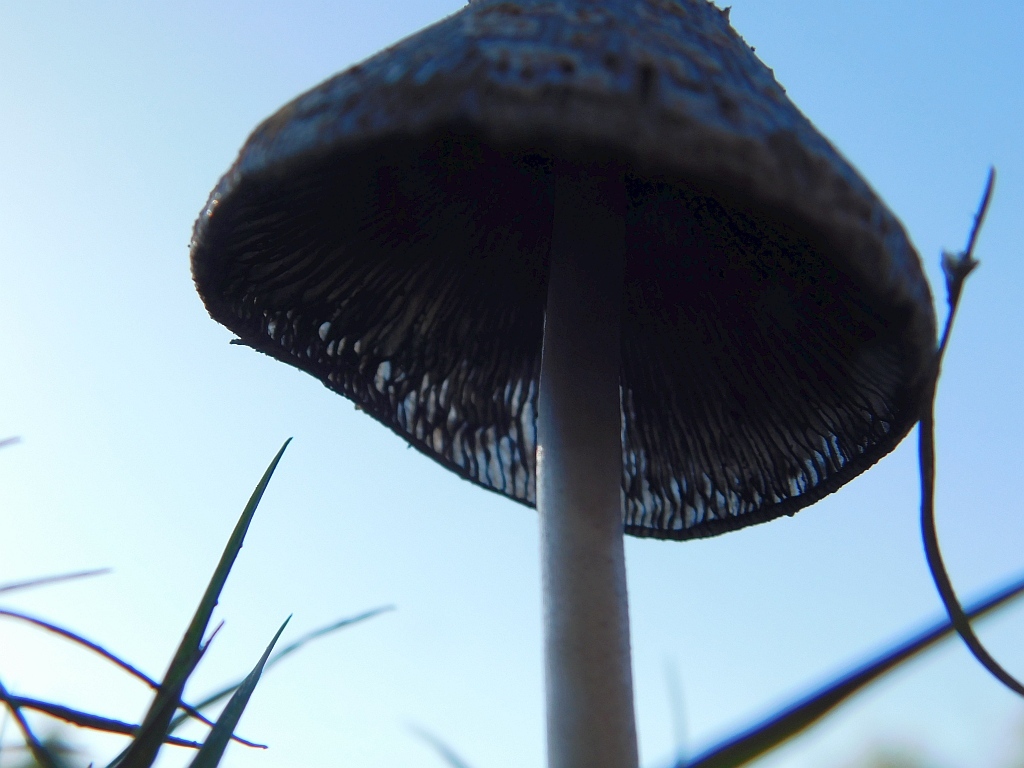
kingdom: Fungi
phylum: Basidiomycota
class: Agaricomycetes
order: Agaricales
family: Psathyrellaceae
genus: Coprinopsis
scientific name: Coprinopsis picacea
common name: Magpie inkcap
